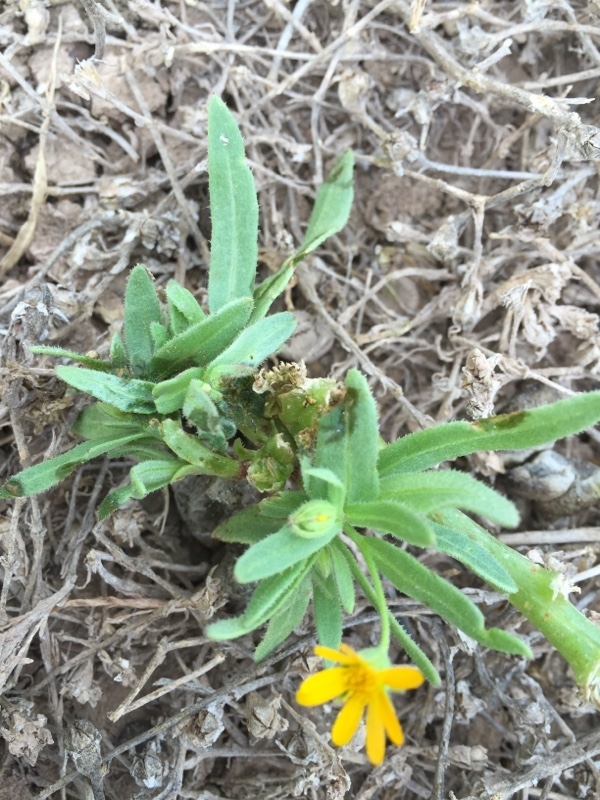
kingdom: Plantae
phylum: Tracheophyta
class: Magnoliopsida
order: Asterales
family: Asteraceae
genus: Calendula
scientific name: Calendula arvensis
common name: Field marigold
